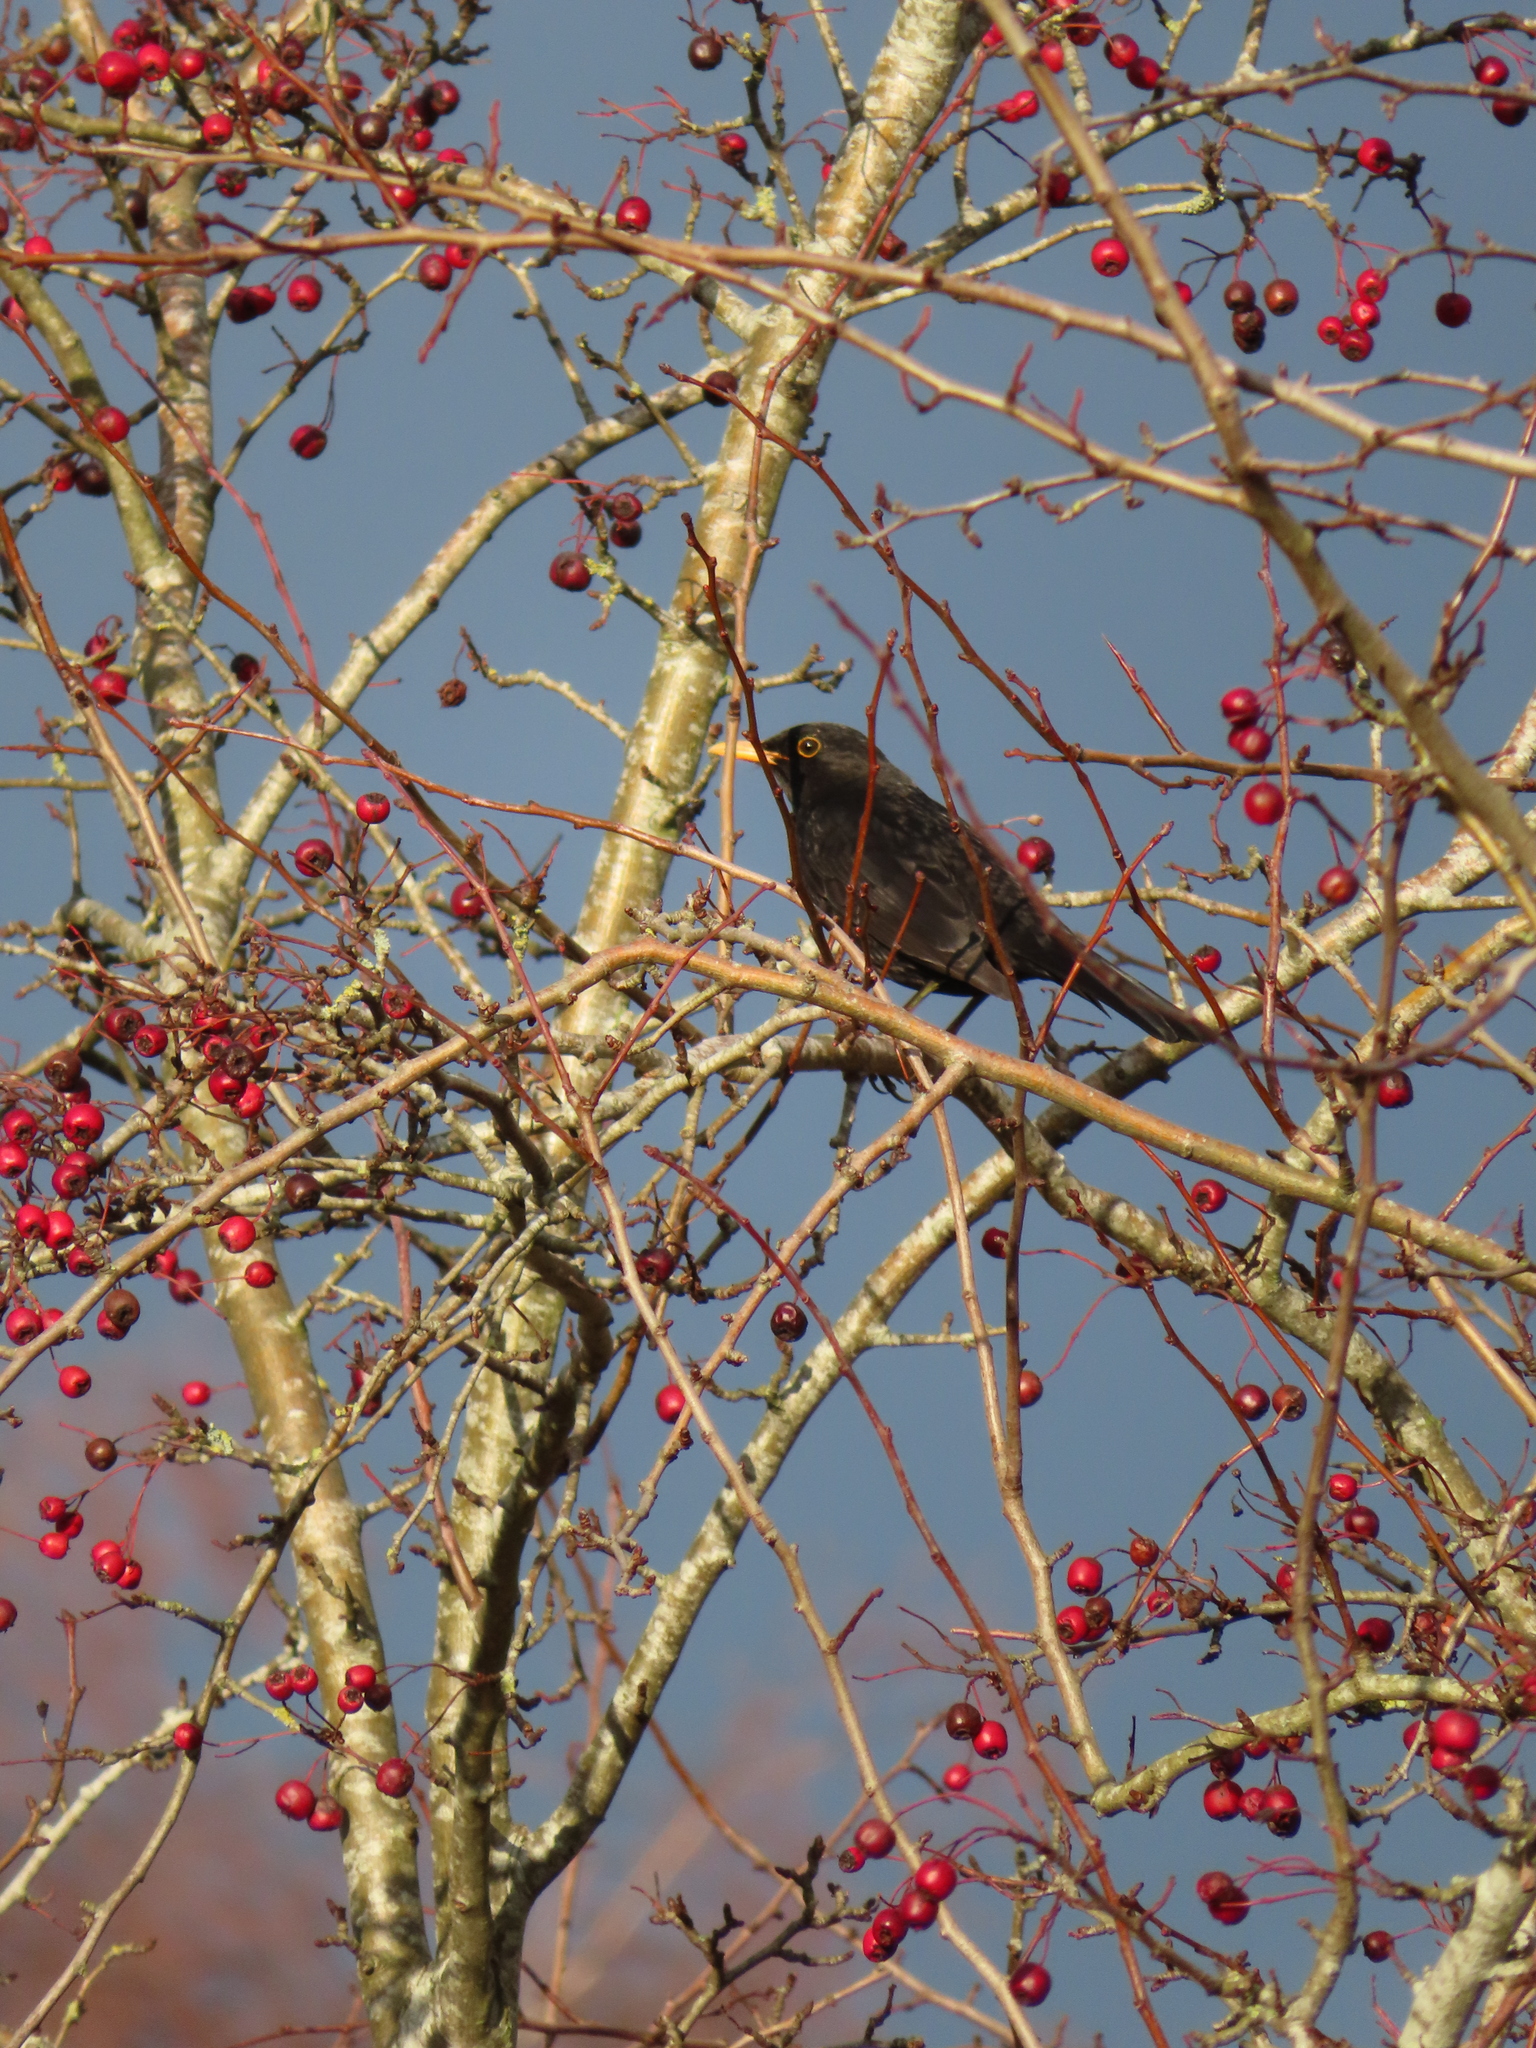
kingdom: Animalia
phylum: Chordata
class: Aves
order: Passeriformes
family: Turdidae
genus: Turdus
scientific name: Turdus merula
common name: Common blackbird
